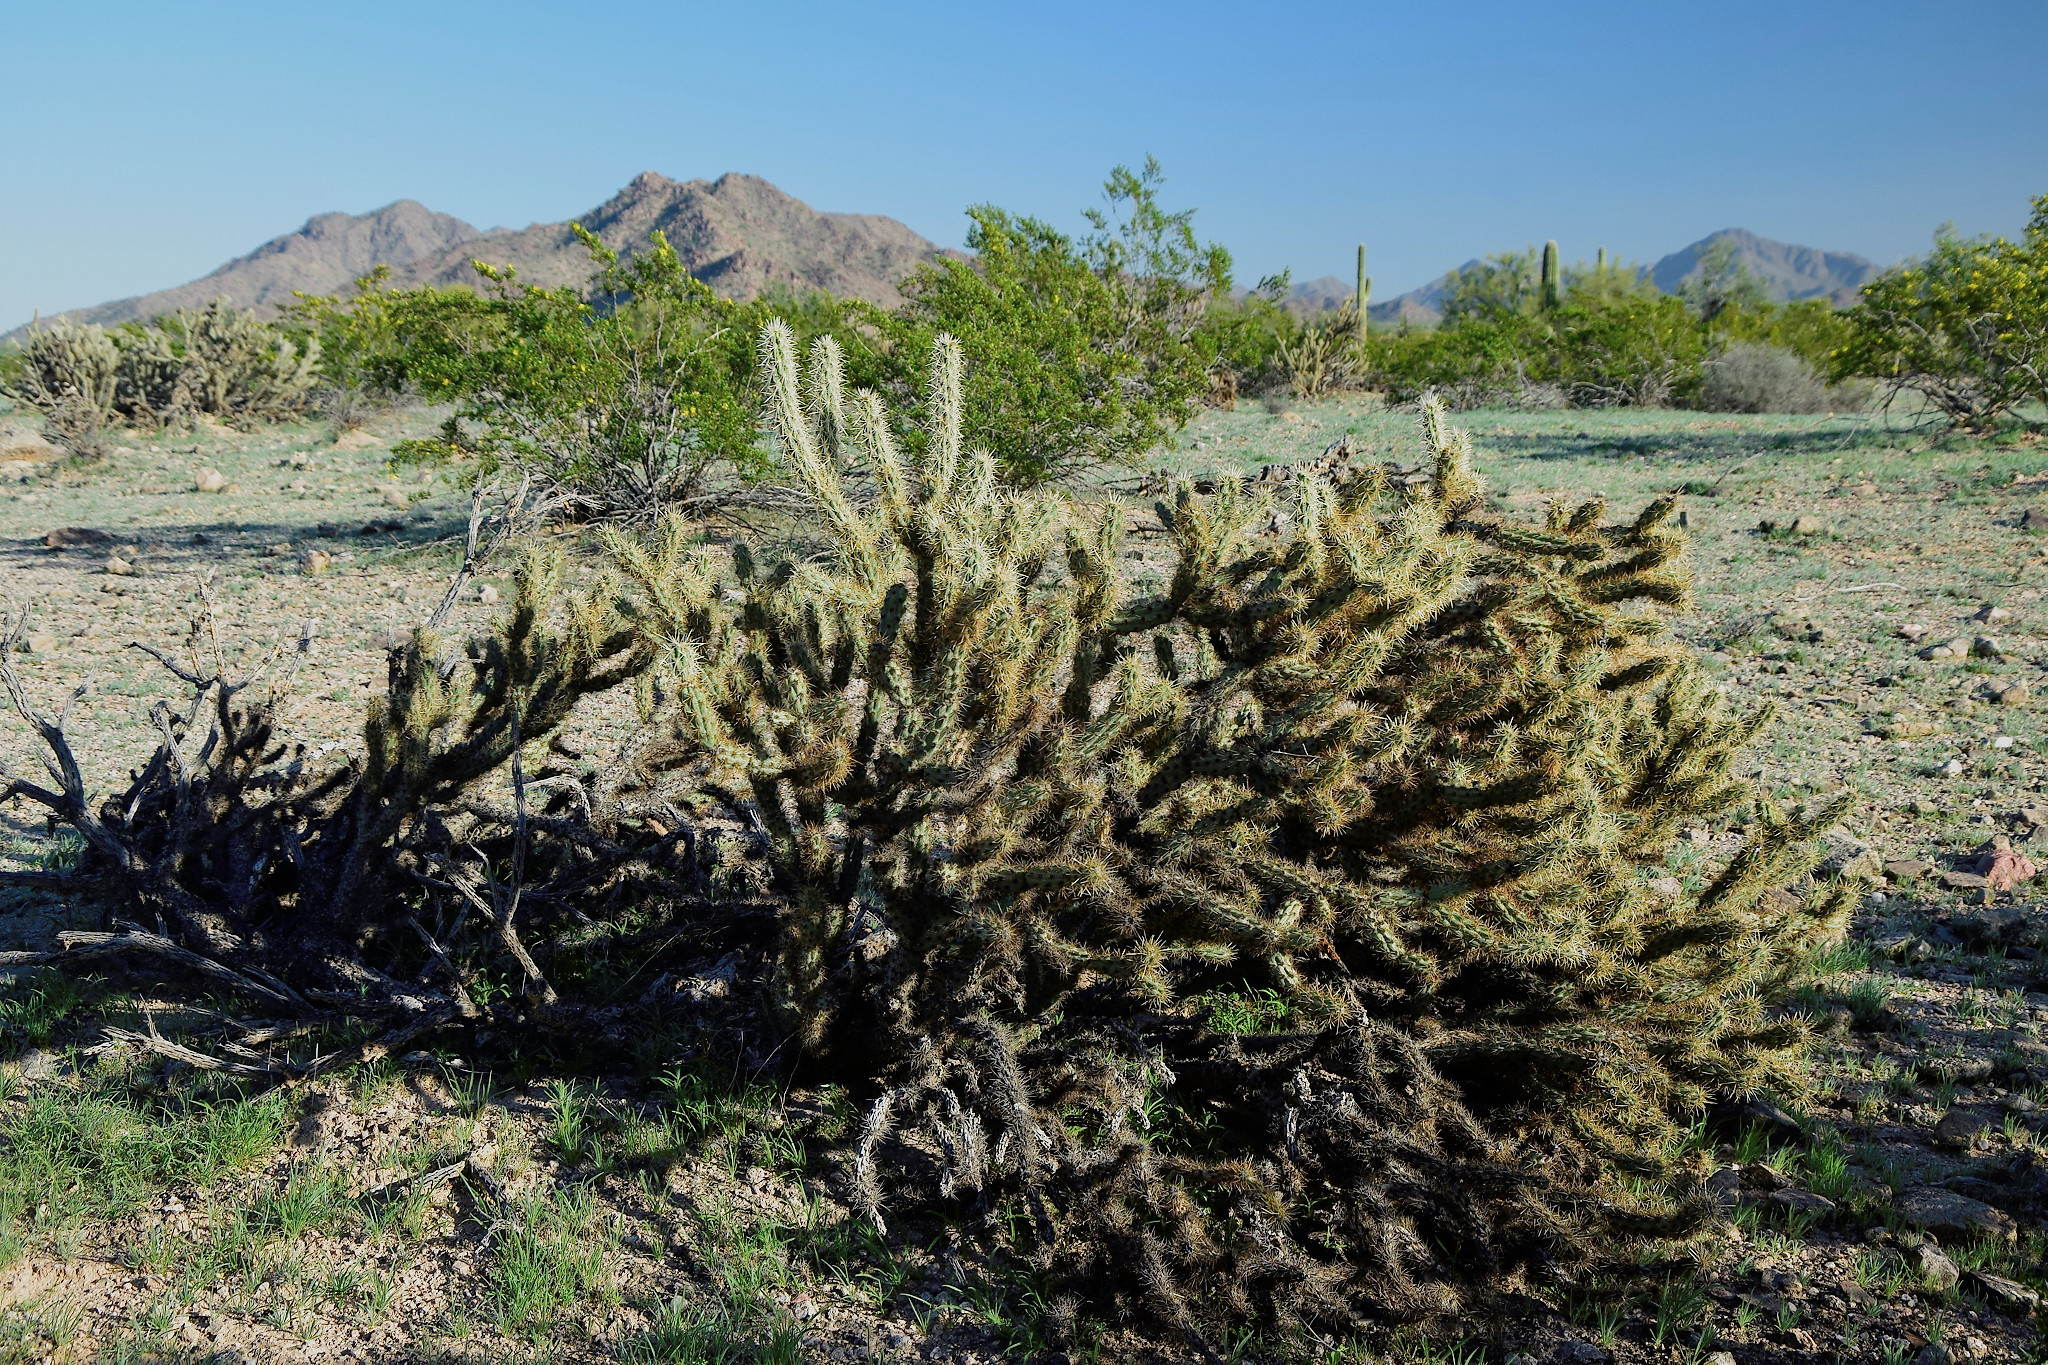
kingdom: Plantae
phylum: Tracheophyta
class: Magnoliopsida
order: Caryophyllales
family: Cactaceae
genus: Cylindropuntia
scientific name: Cylindropuntia acanthocarpa
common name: Buckhorn cholla
